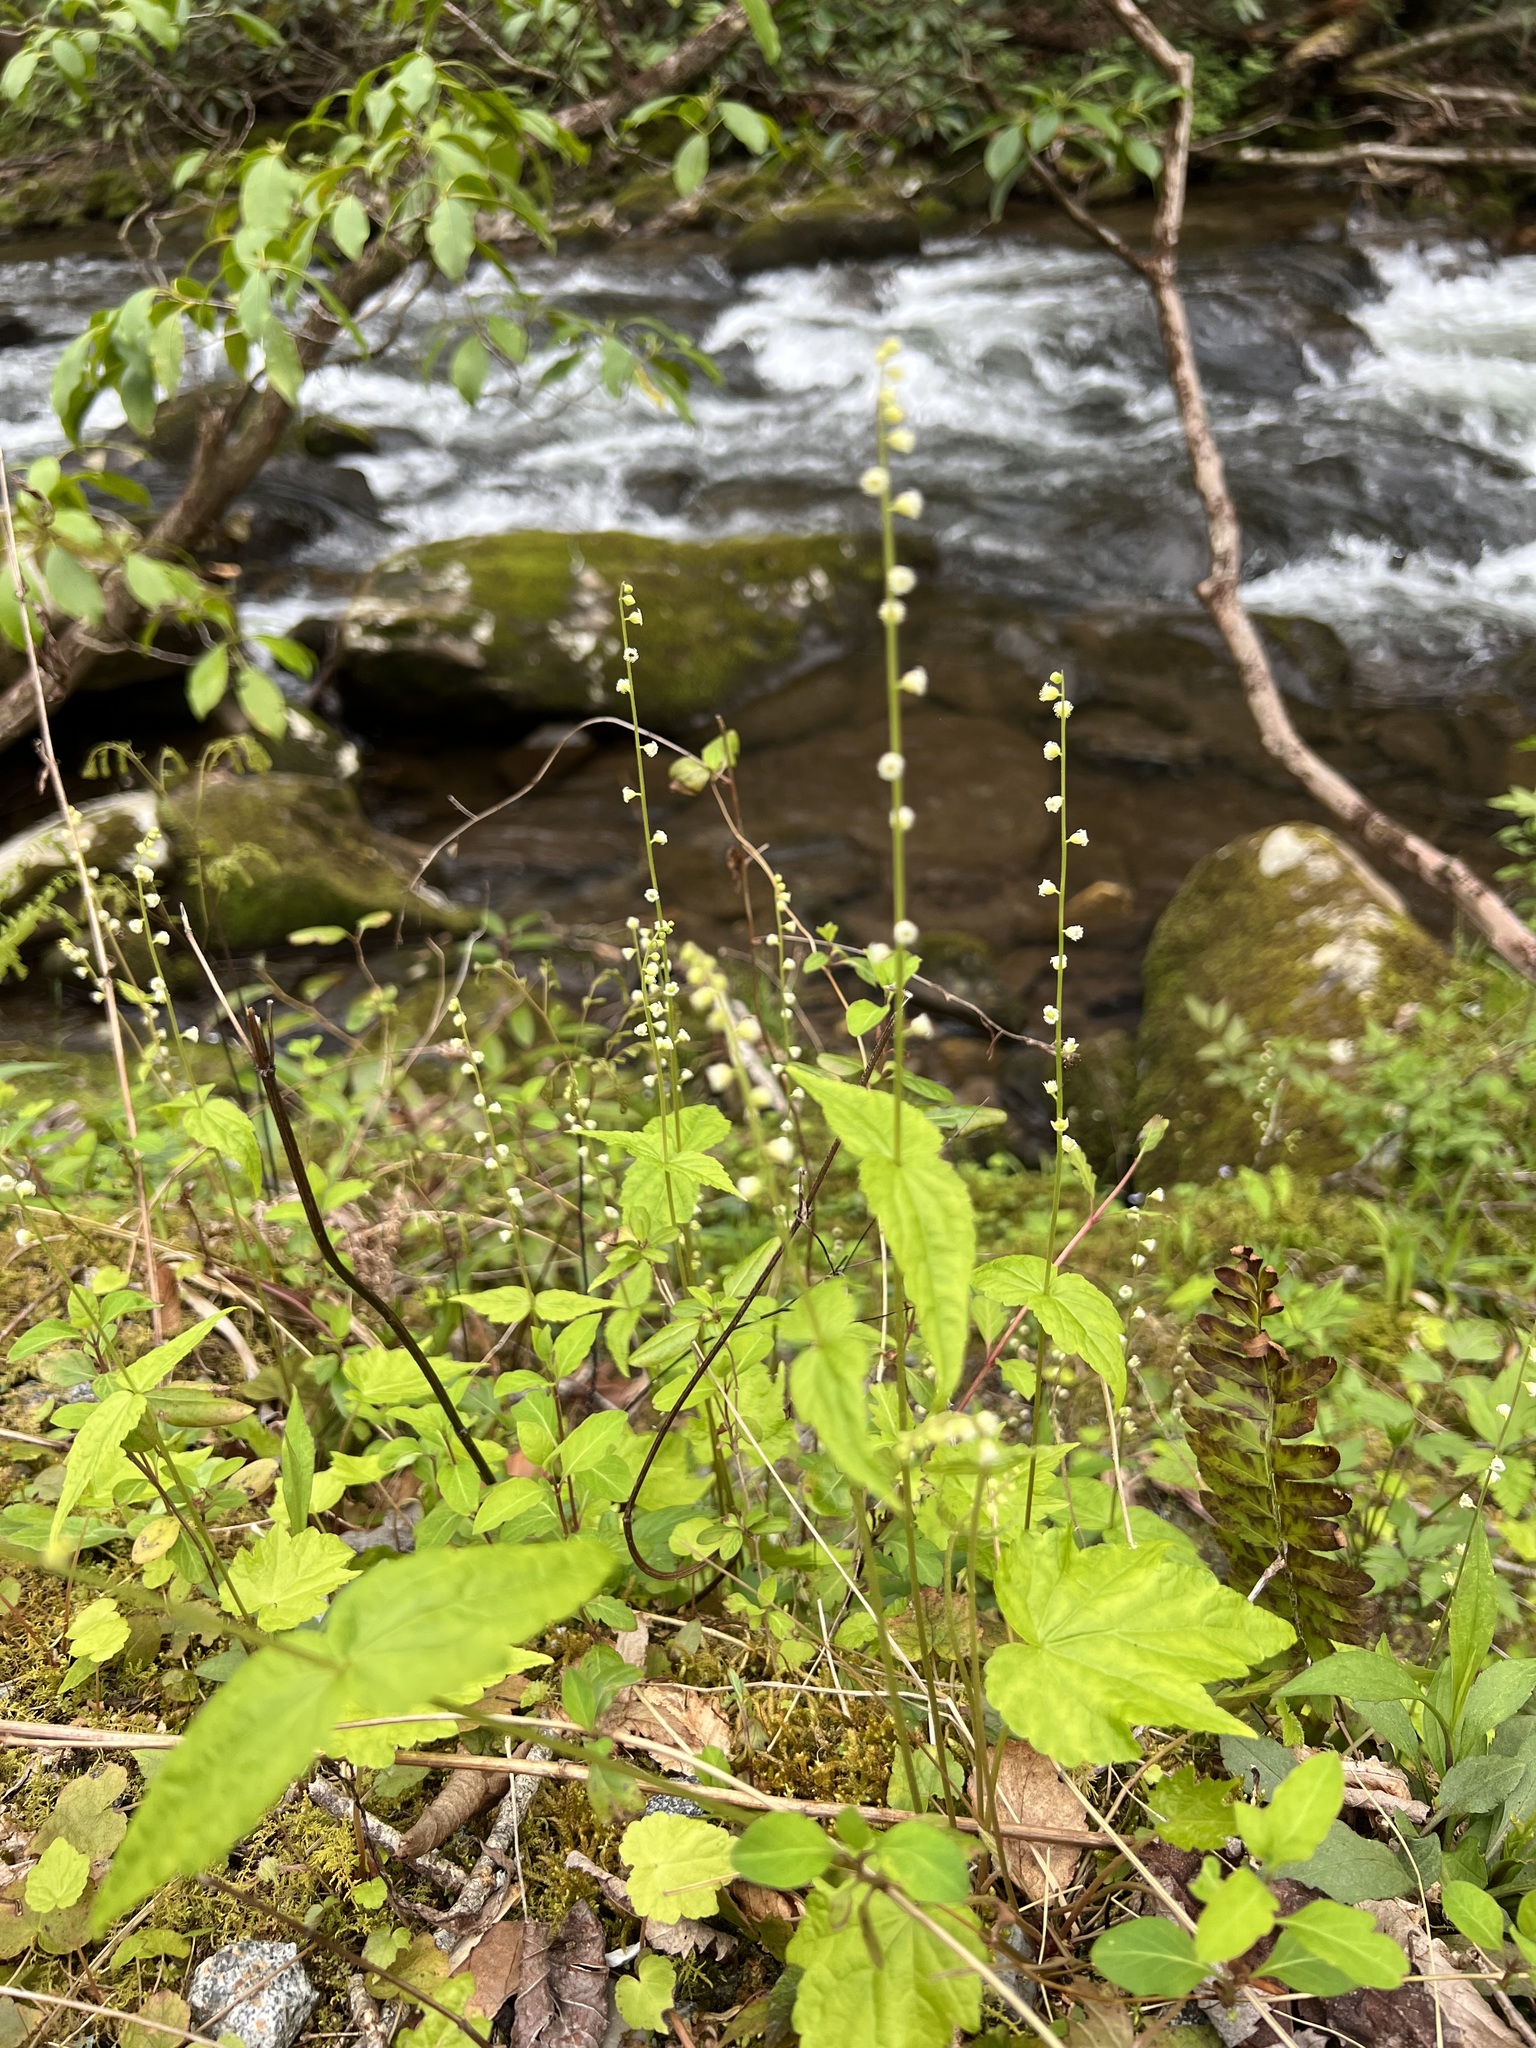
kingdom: Plantae
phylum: Tracheophyta
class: Magnoliopsida
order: Saxifragales
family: Saxifragaceae
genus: Mitella
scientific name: Mitella diphylla
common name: Coolwort
